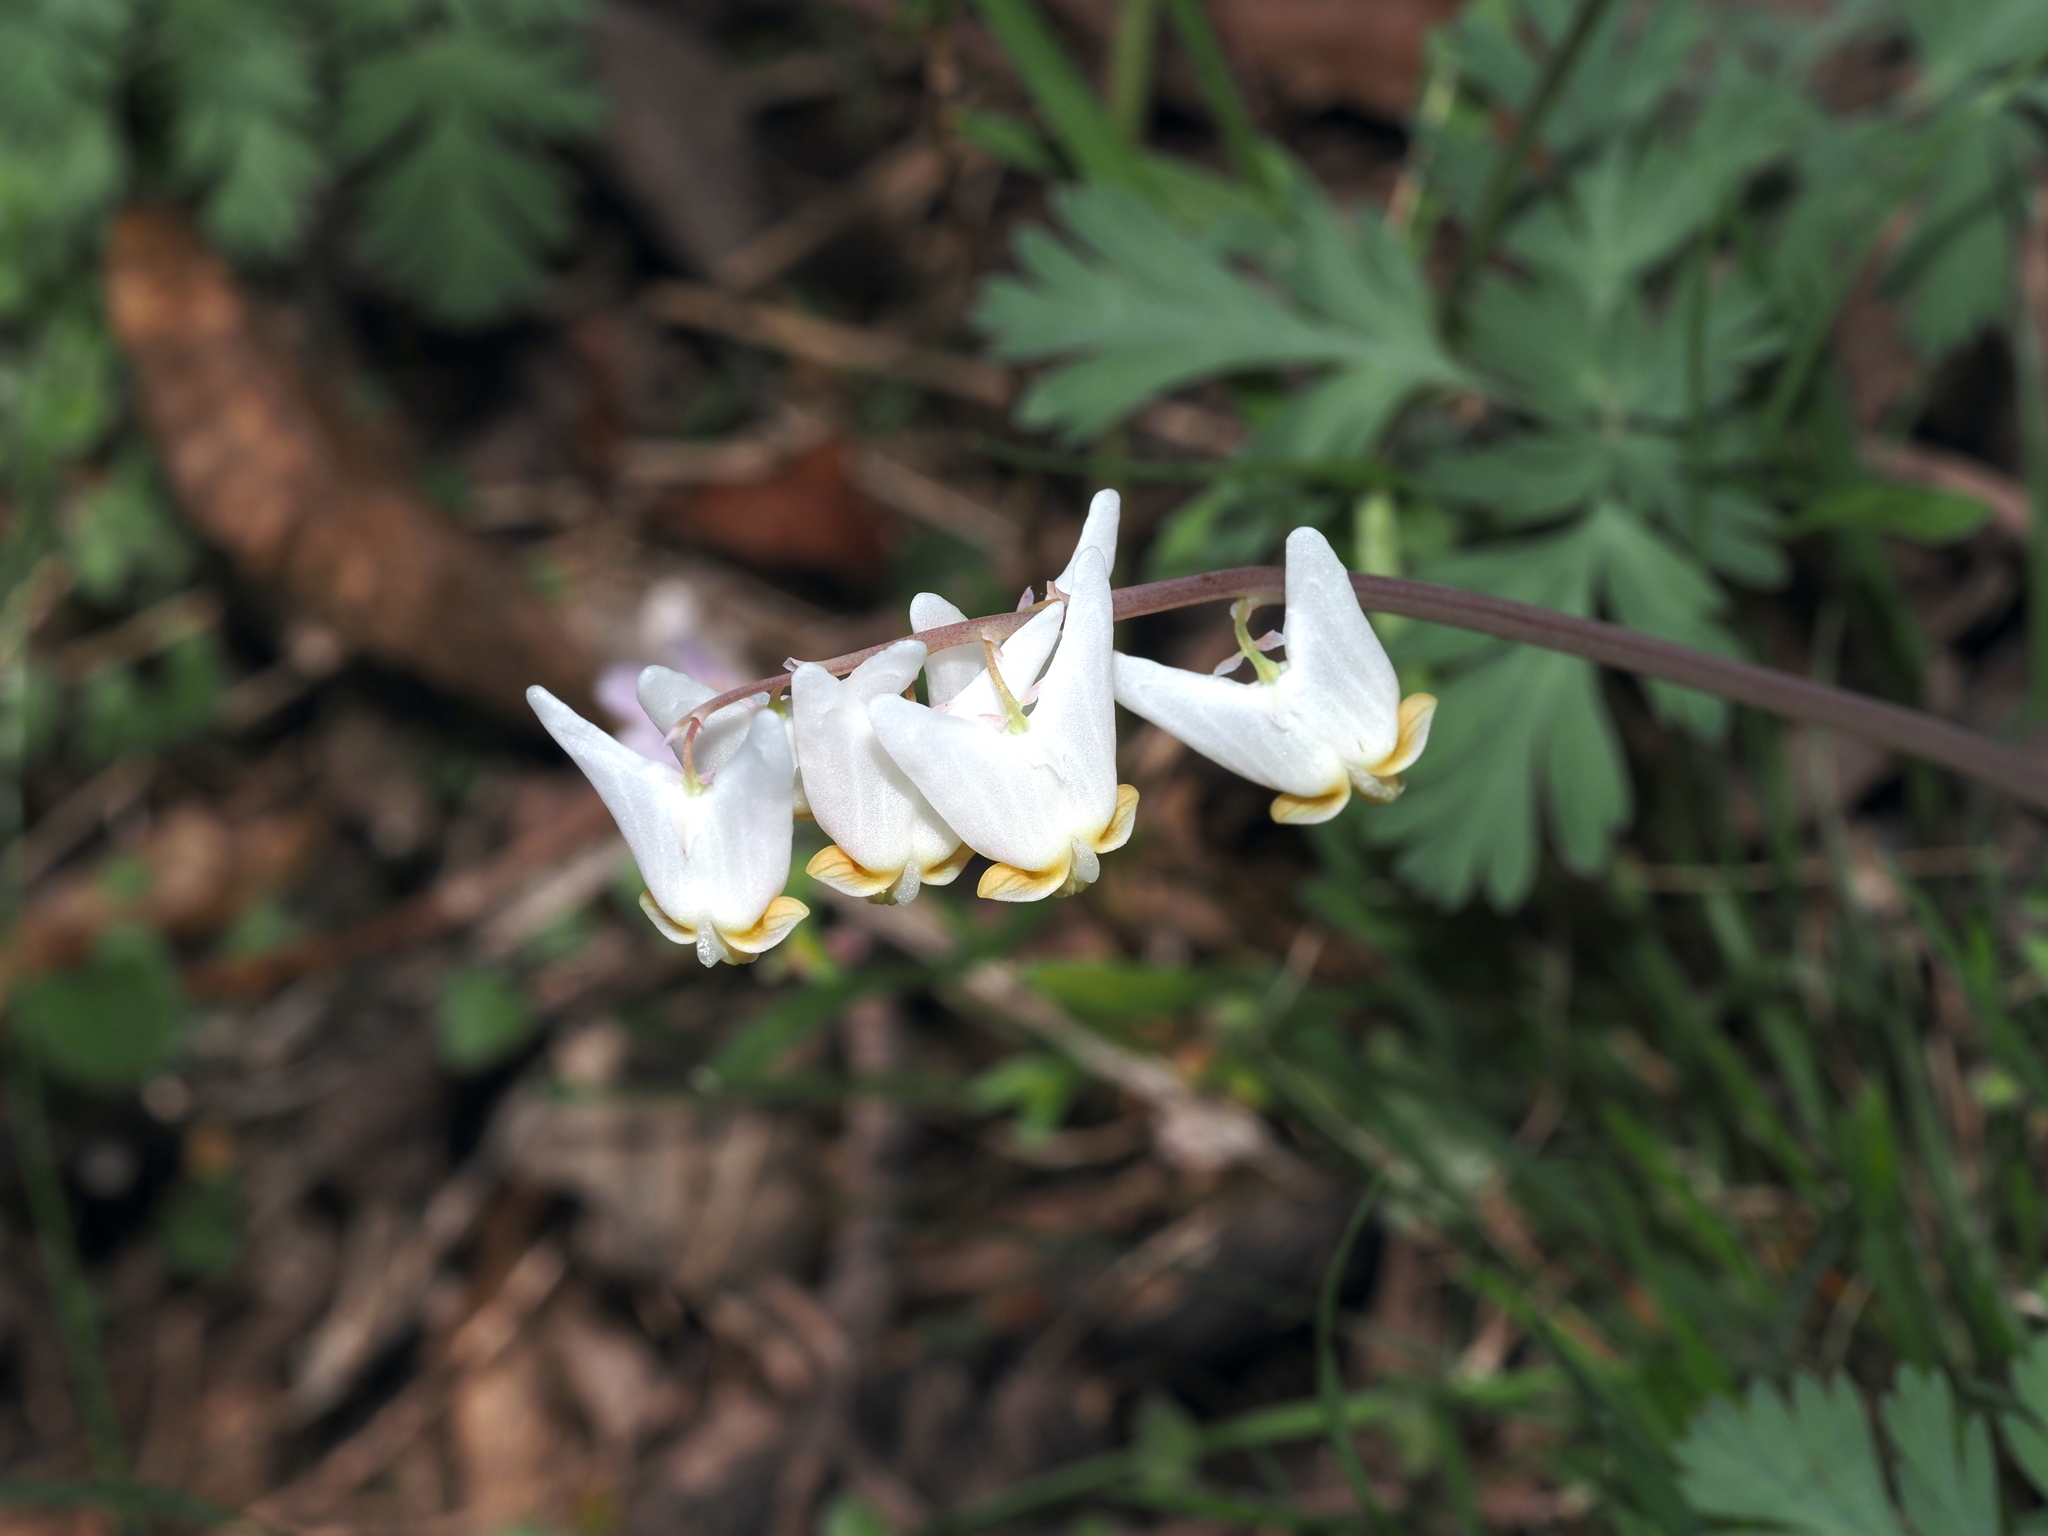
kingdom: Plantae
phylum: Tracheophyta
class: Magnoliopsida
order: Ranunculales
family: Papaveraceae
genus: Dicentra
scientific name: Dicentra cucullaria
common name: Dutchman's breeches
